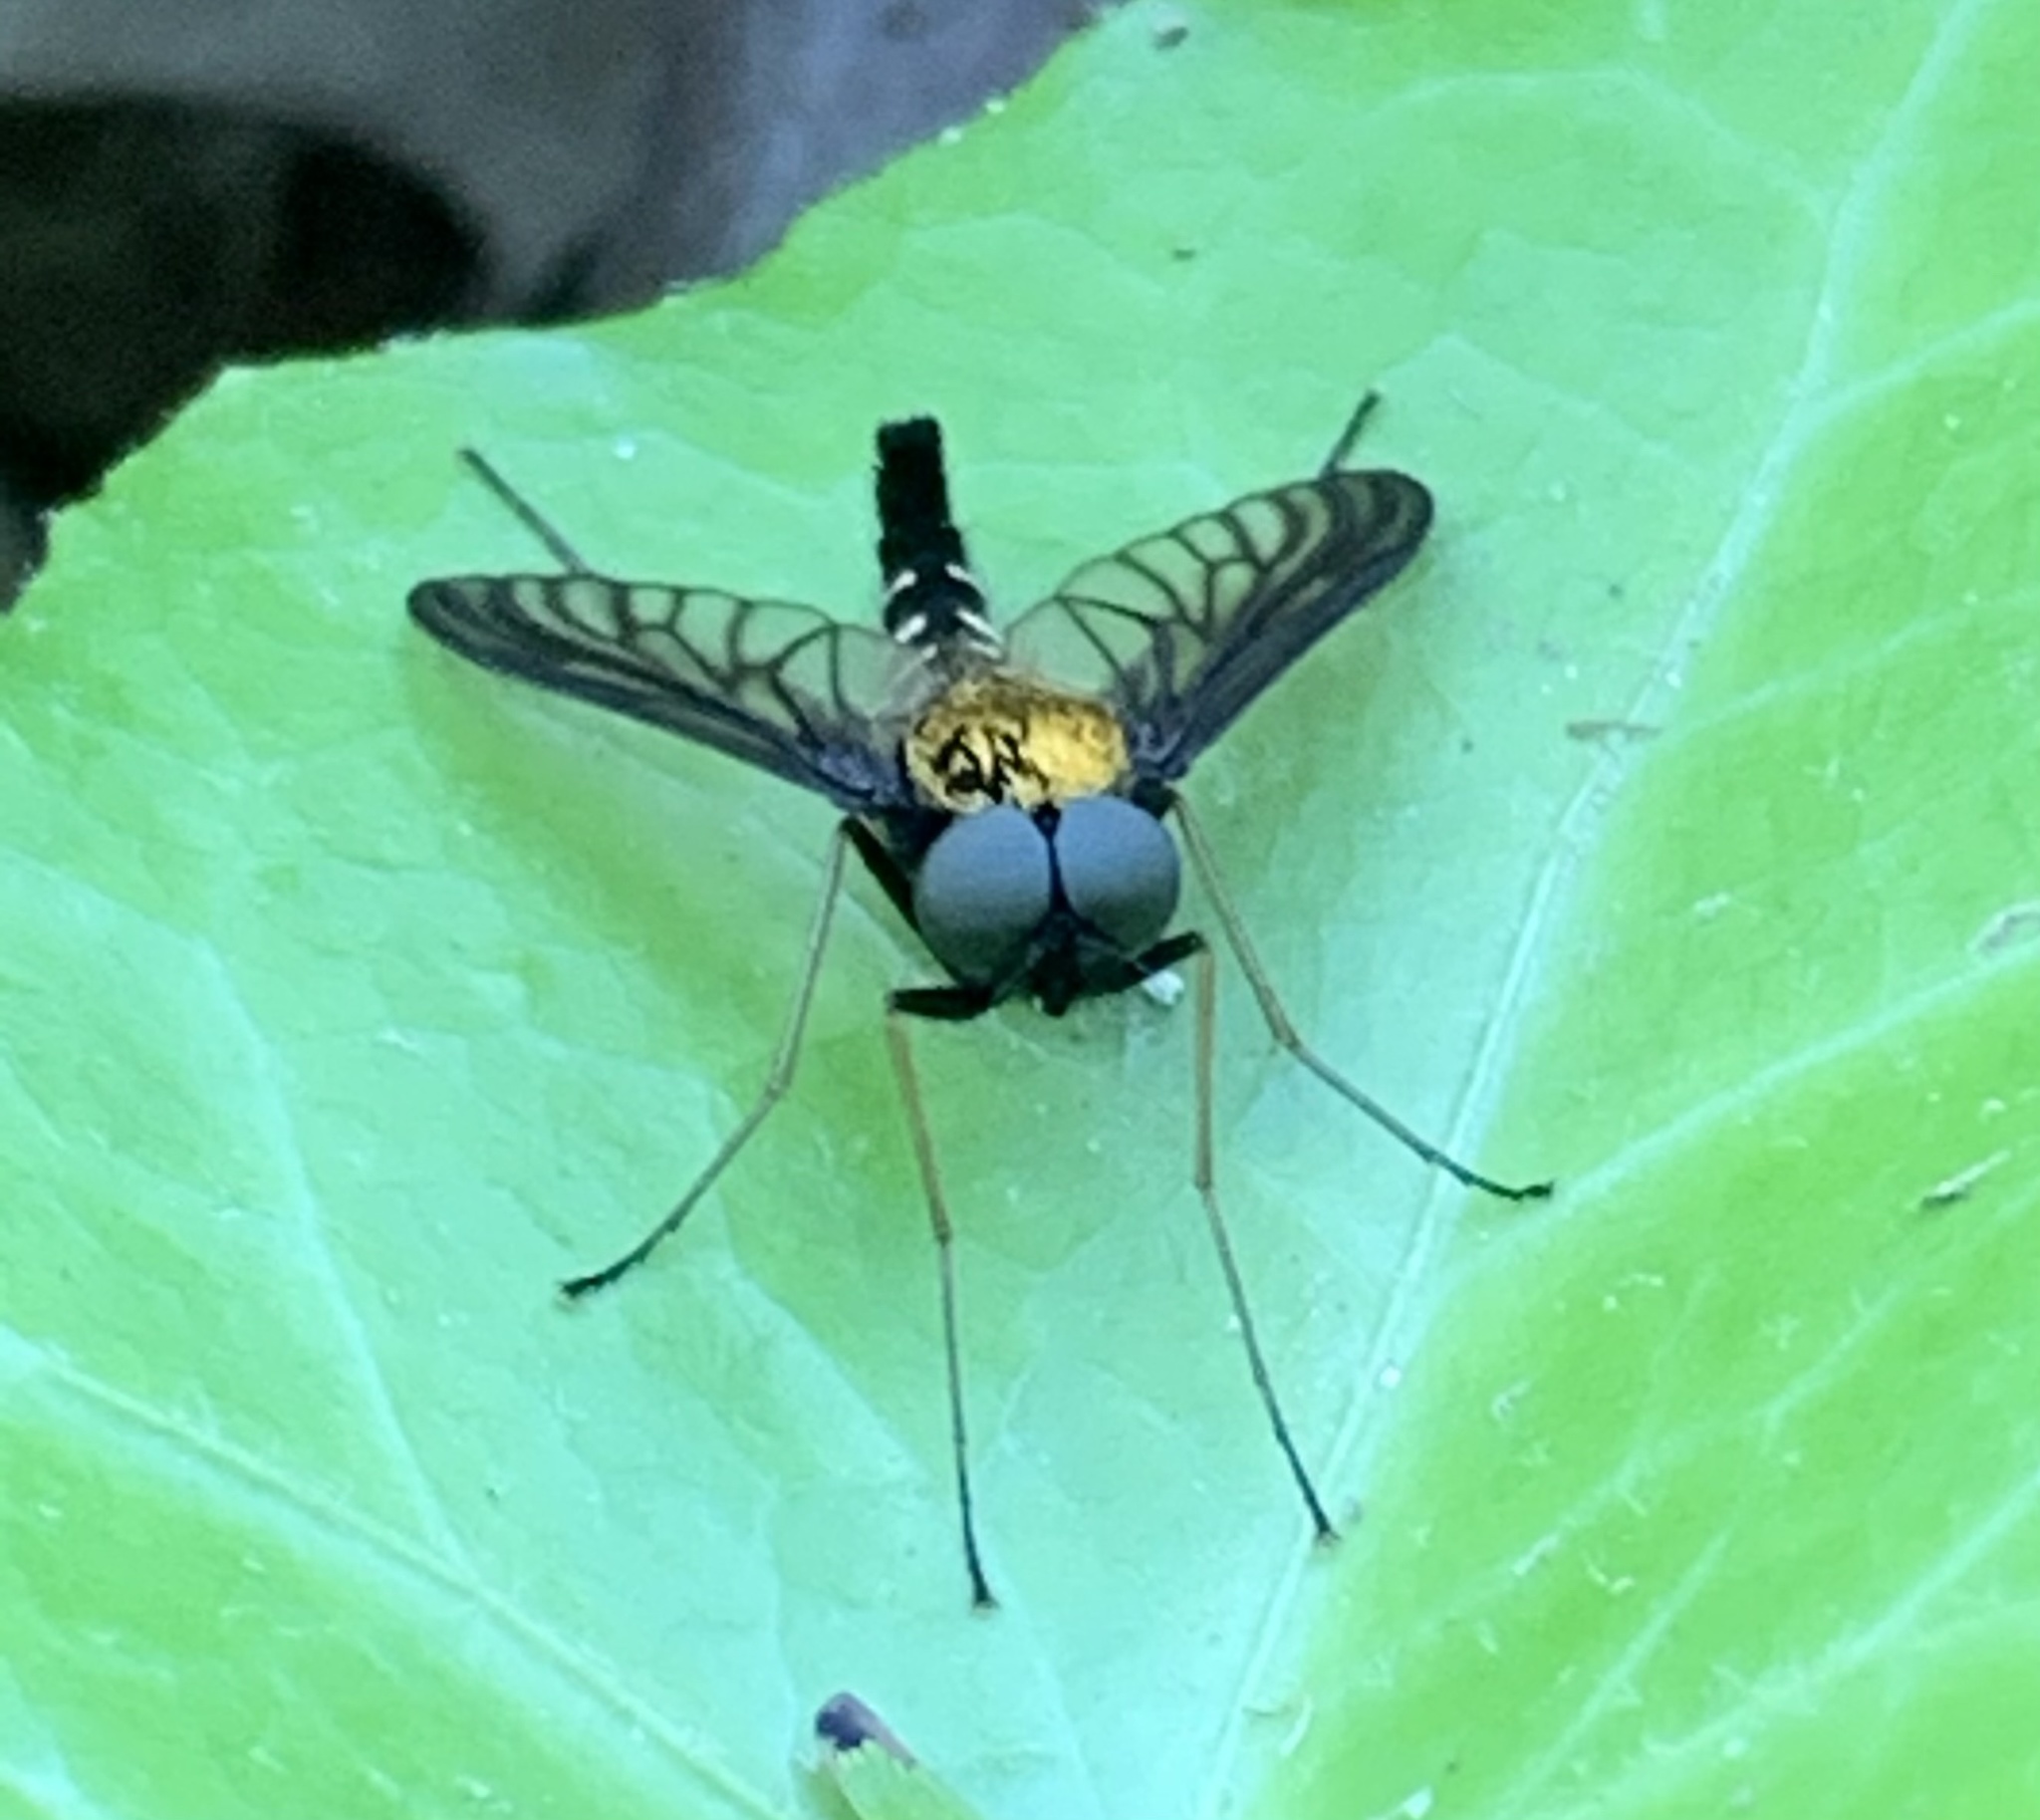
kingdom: Animalia
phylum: Arthropoda
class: Insecta
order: Diptera
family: Rhagionidae
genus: Chrysopilus
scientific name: Chrysopilus thoracicus
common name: Golden-backed snipe fly
